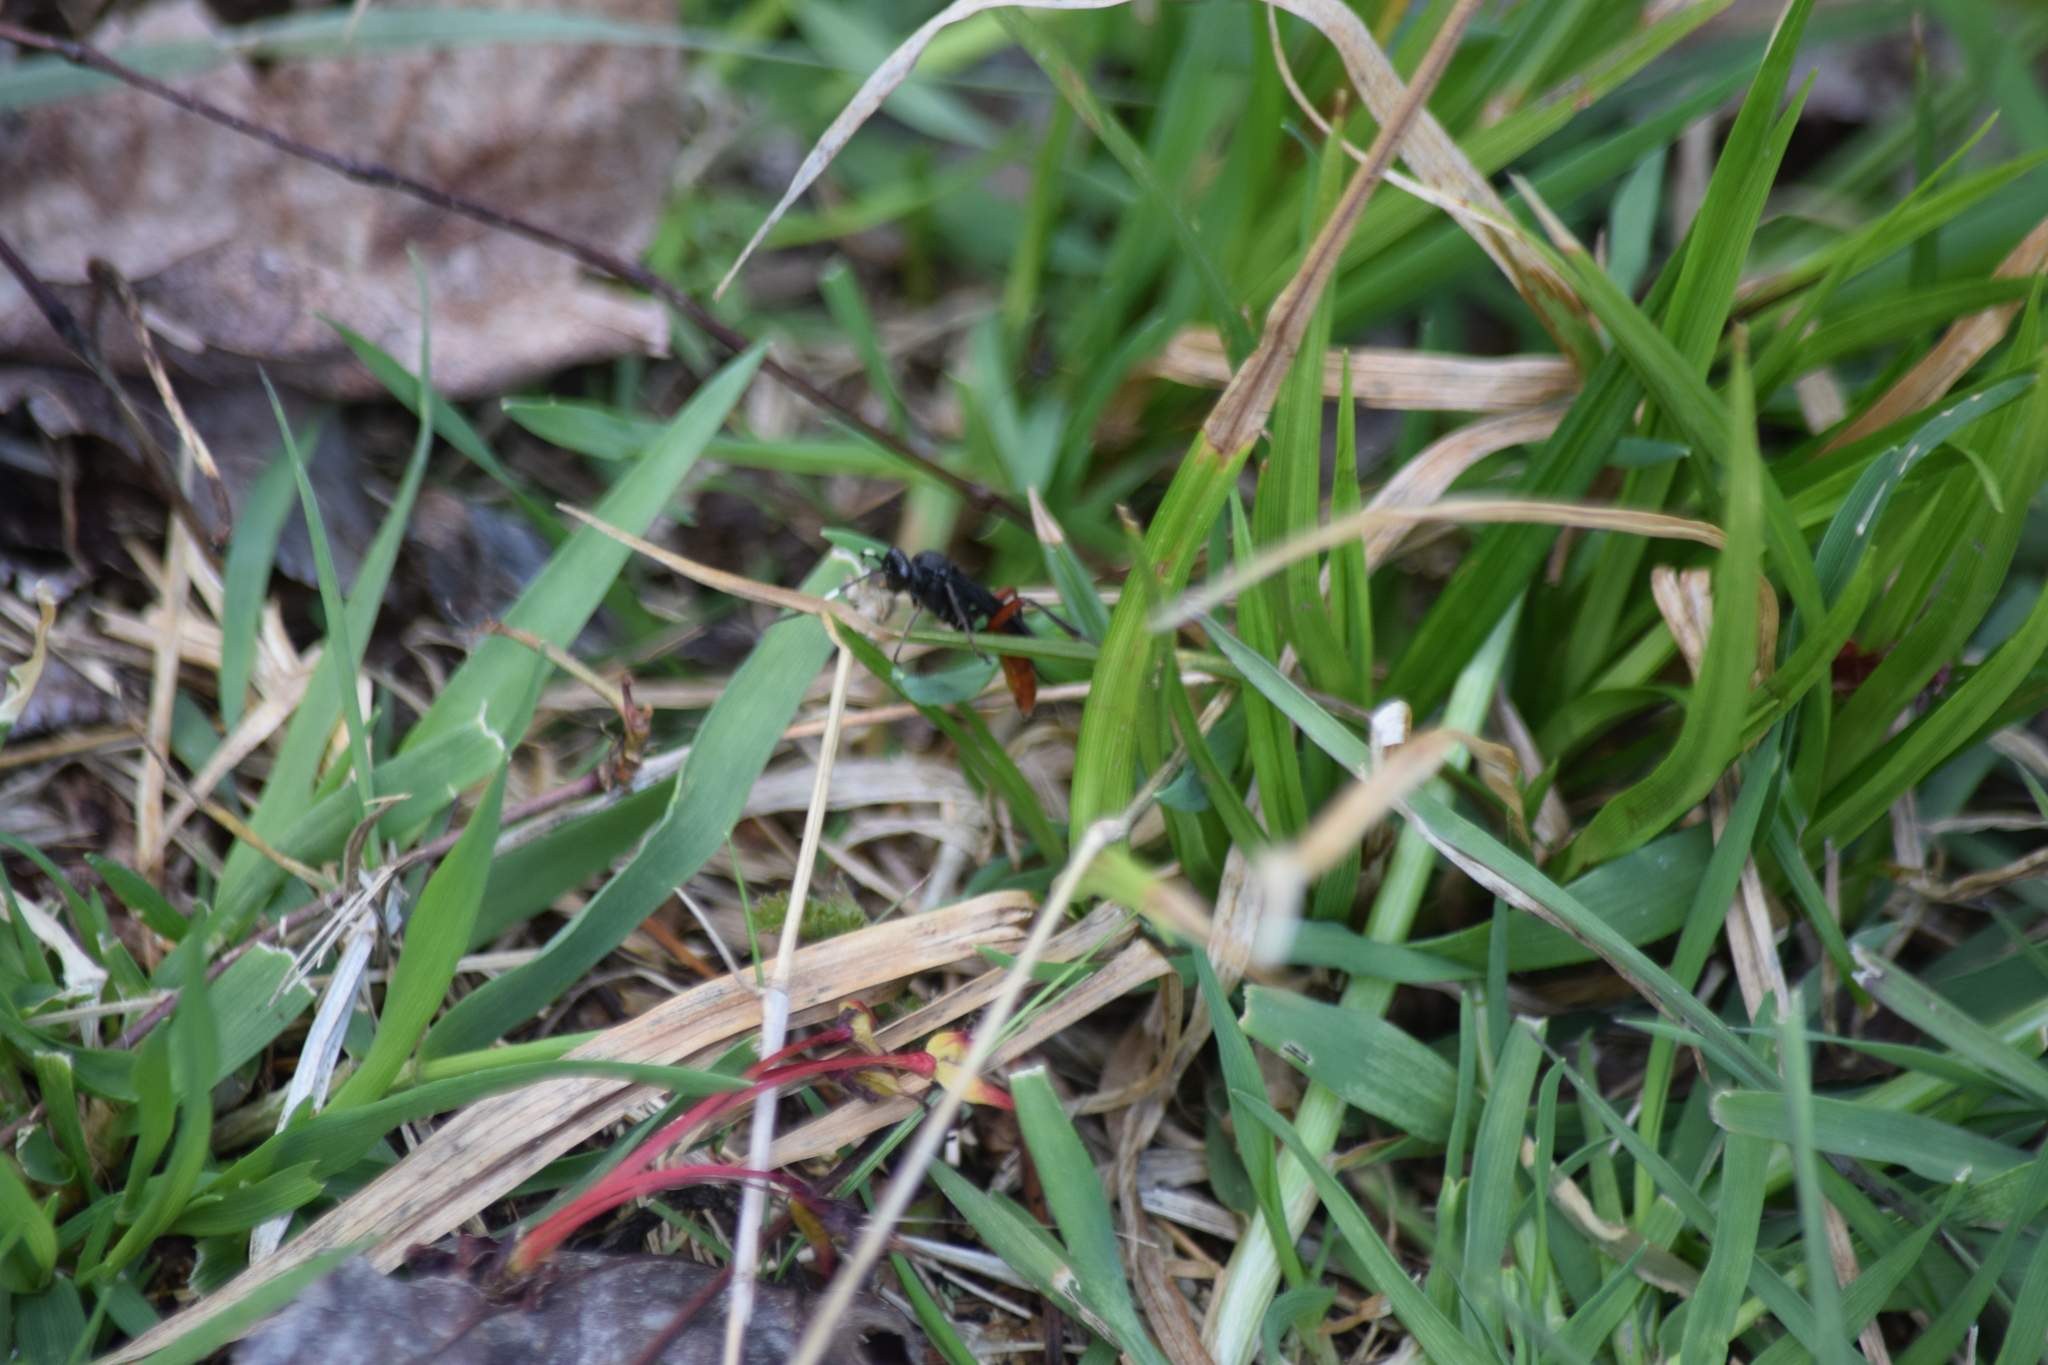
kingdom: Animalia
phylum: Arthropoda
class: Insecta
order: Hymenoptera
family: Ichneumonidae
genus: Limonethe
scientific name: Limonethe maurator
